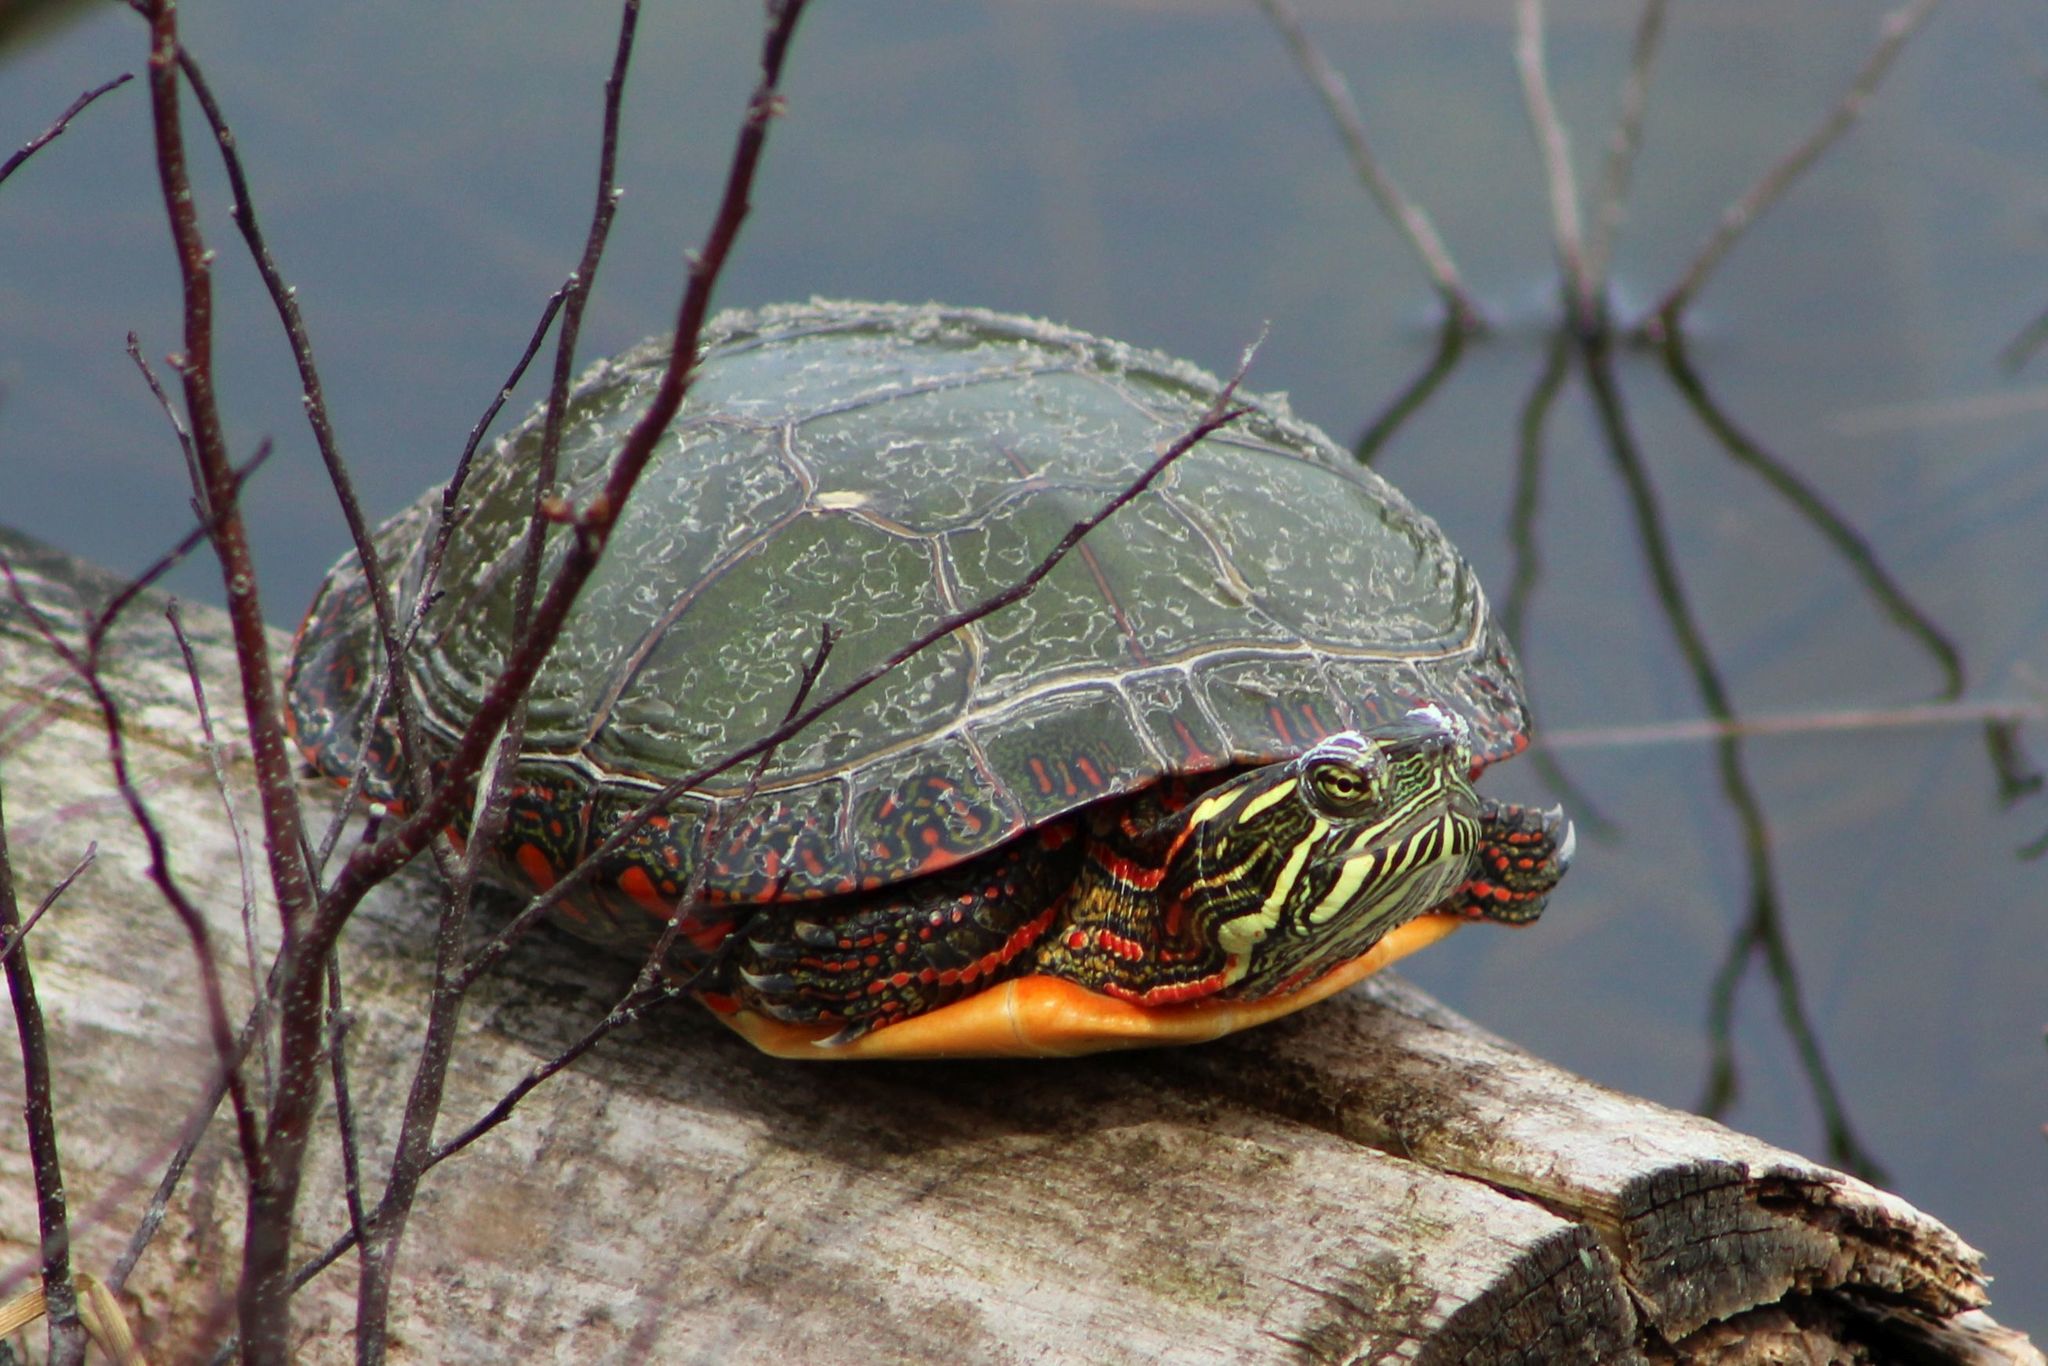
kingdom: Animalia
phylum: Chordata
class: Testudines
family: Emydidae
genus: Chrysemys
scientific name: Chrysemys picta
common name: Painted turtle
